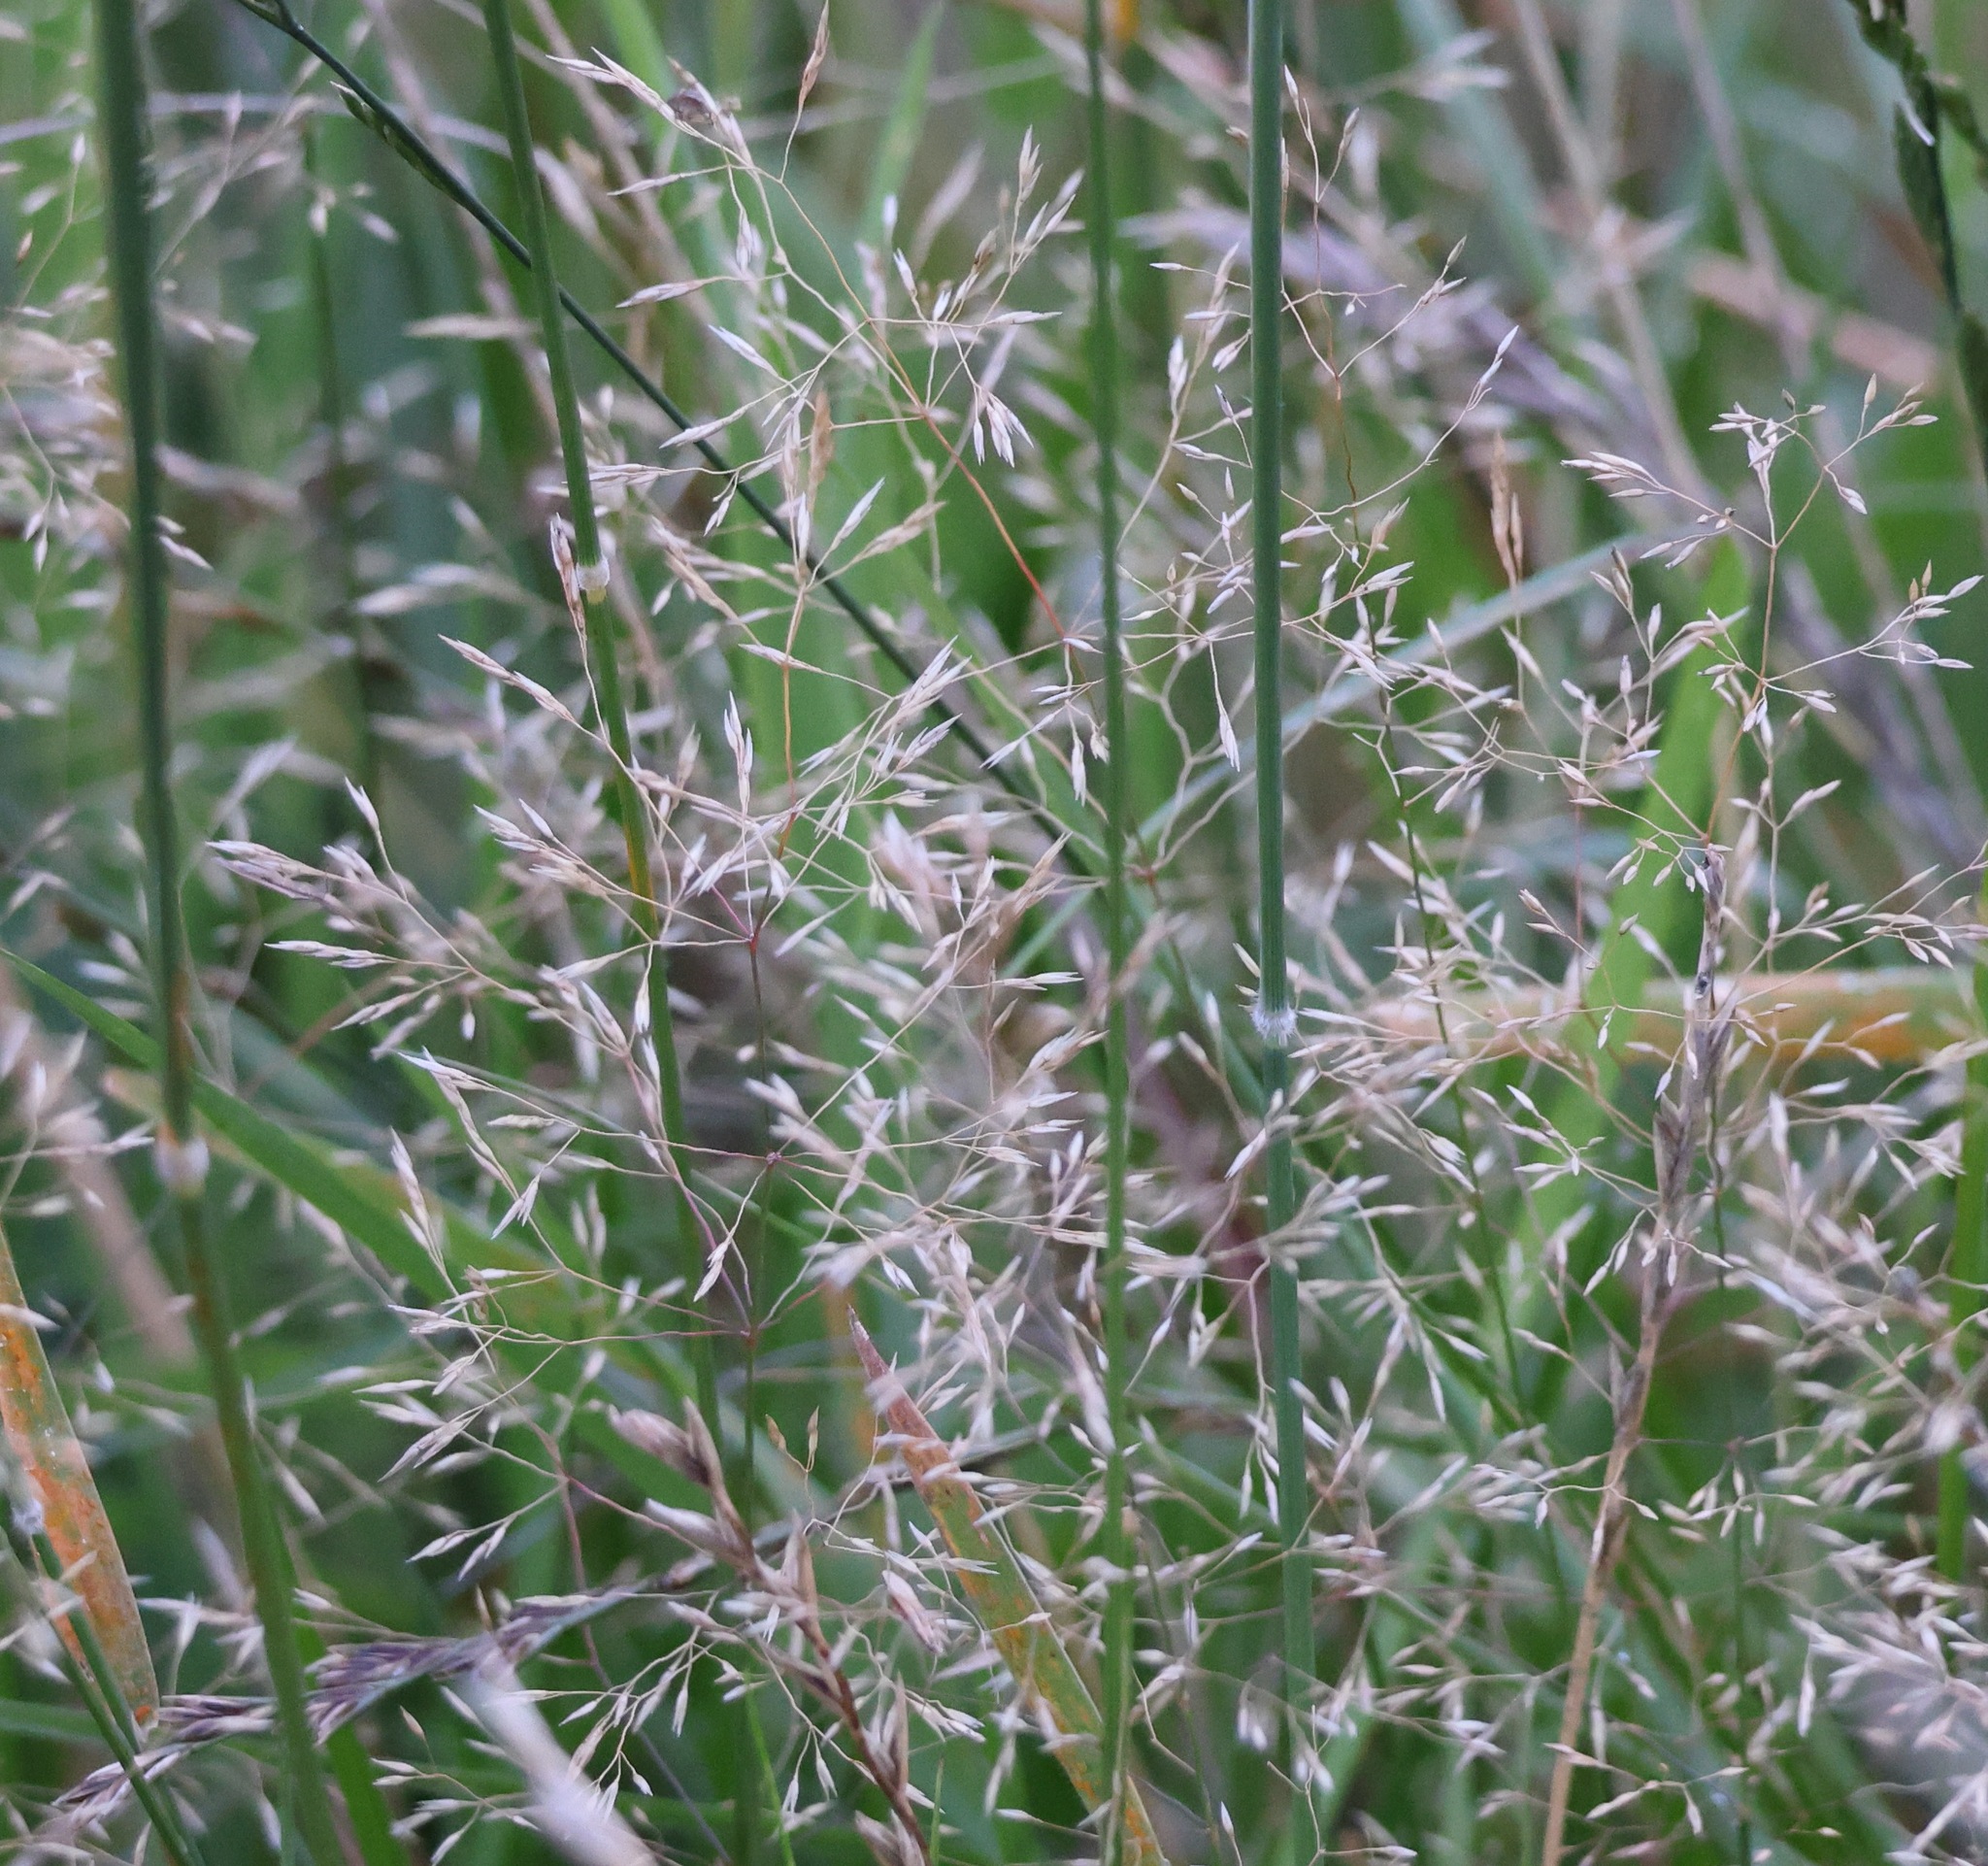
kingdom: Plantae
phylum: Tracheophyta
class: Liliopsida
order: Poales
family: Poaceae
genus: Agrostis
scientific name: Agrostis capillaris
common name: Colonial bentgrass
